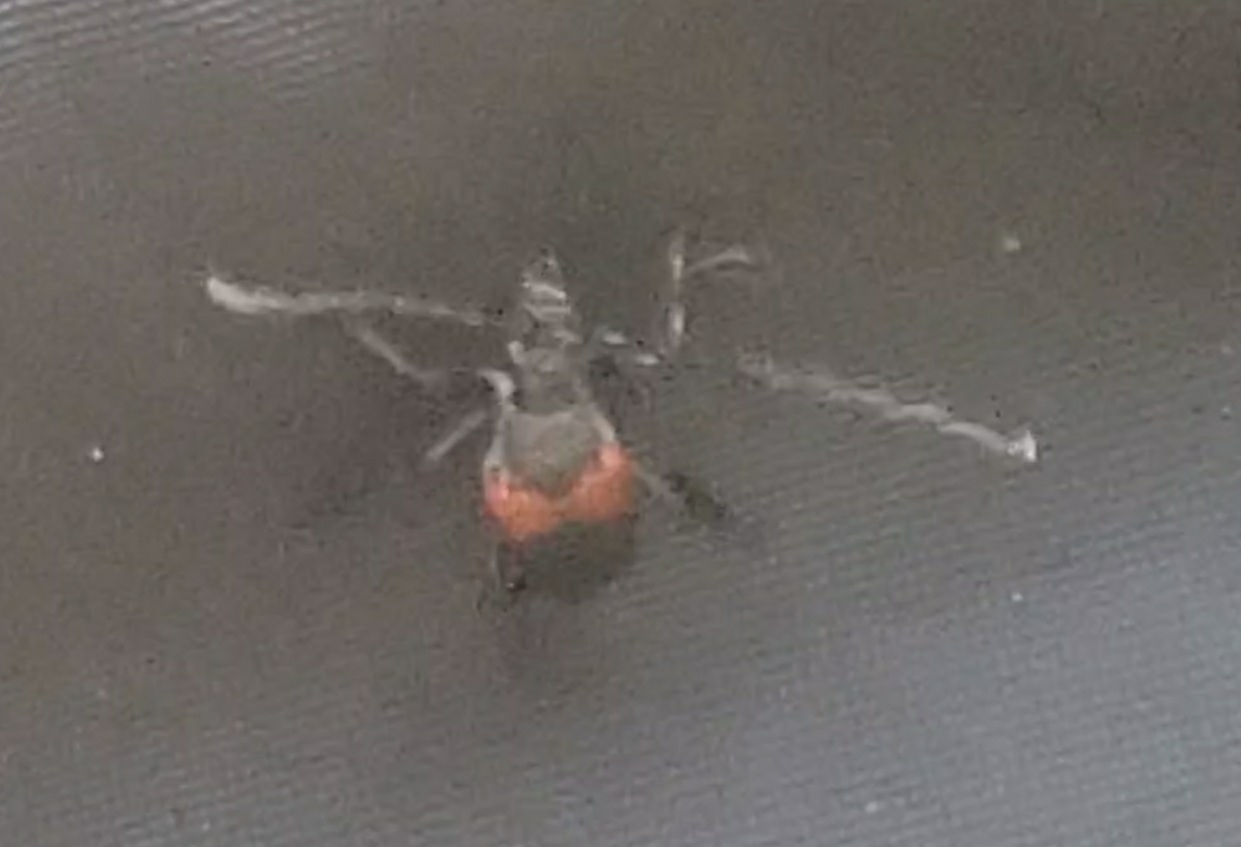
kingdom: Animalia
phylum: Arthropoda
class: Insecta
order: Coleoptera
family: Cerambycidae
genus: Stictoleptura
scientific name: Stictoleptura canadensis
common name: Red-shouldered pine borer
